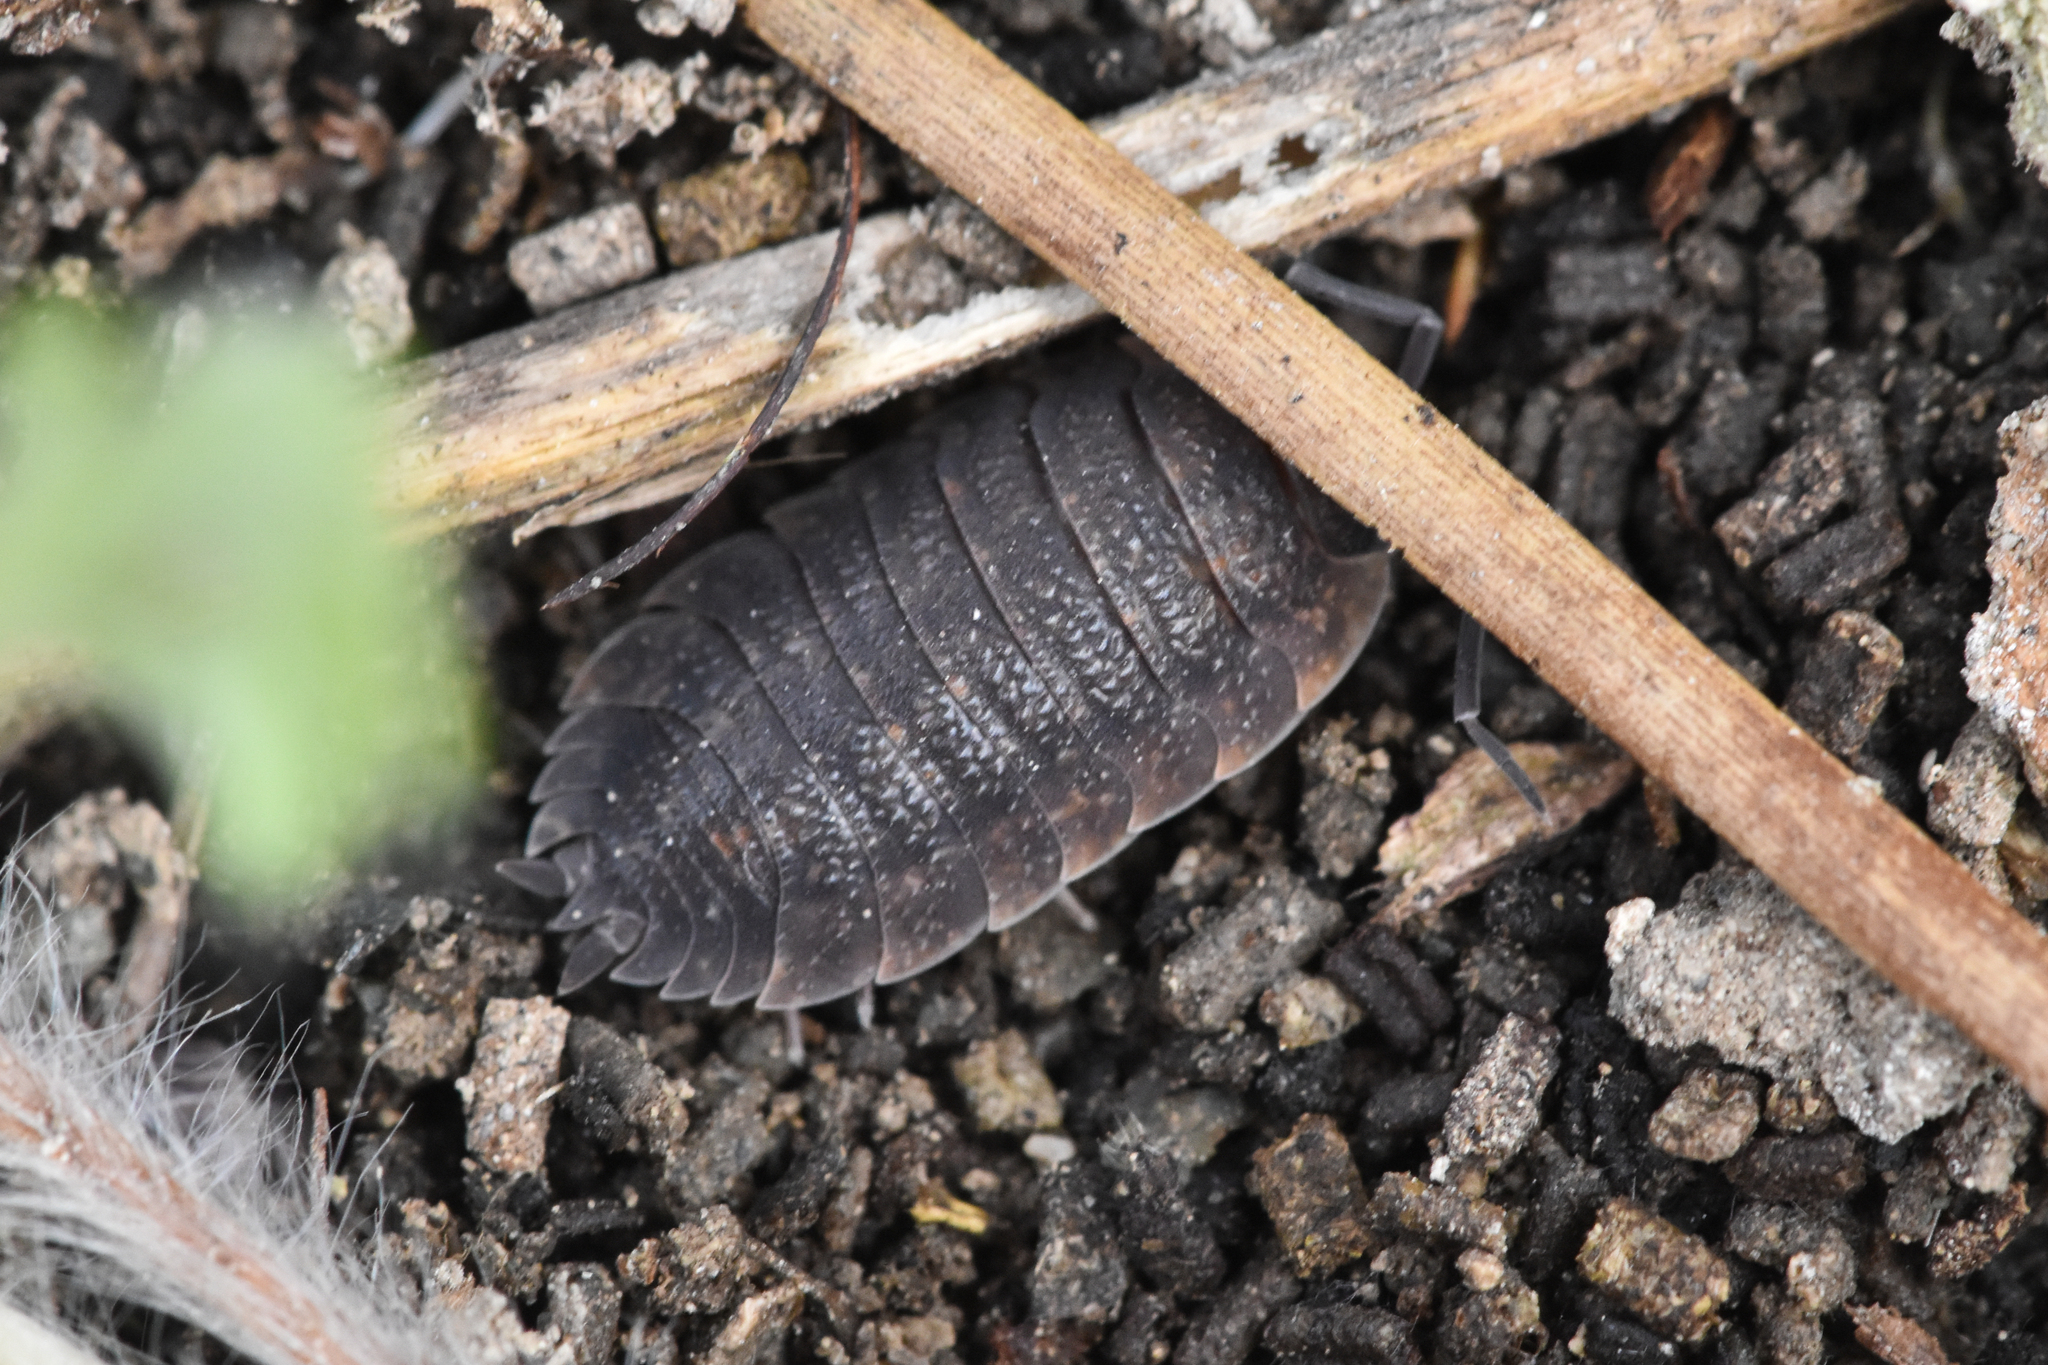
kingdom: Animalia
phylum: Arthropoda
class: Malacostraca
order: Isopoda
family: Porcellionidae
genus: Porcellio
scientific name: Porcellio scaber
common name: Common rough woodlouse
